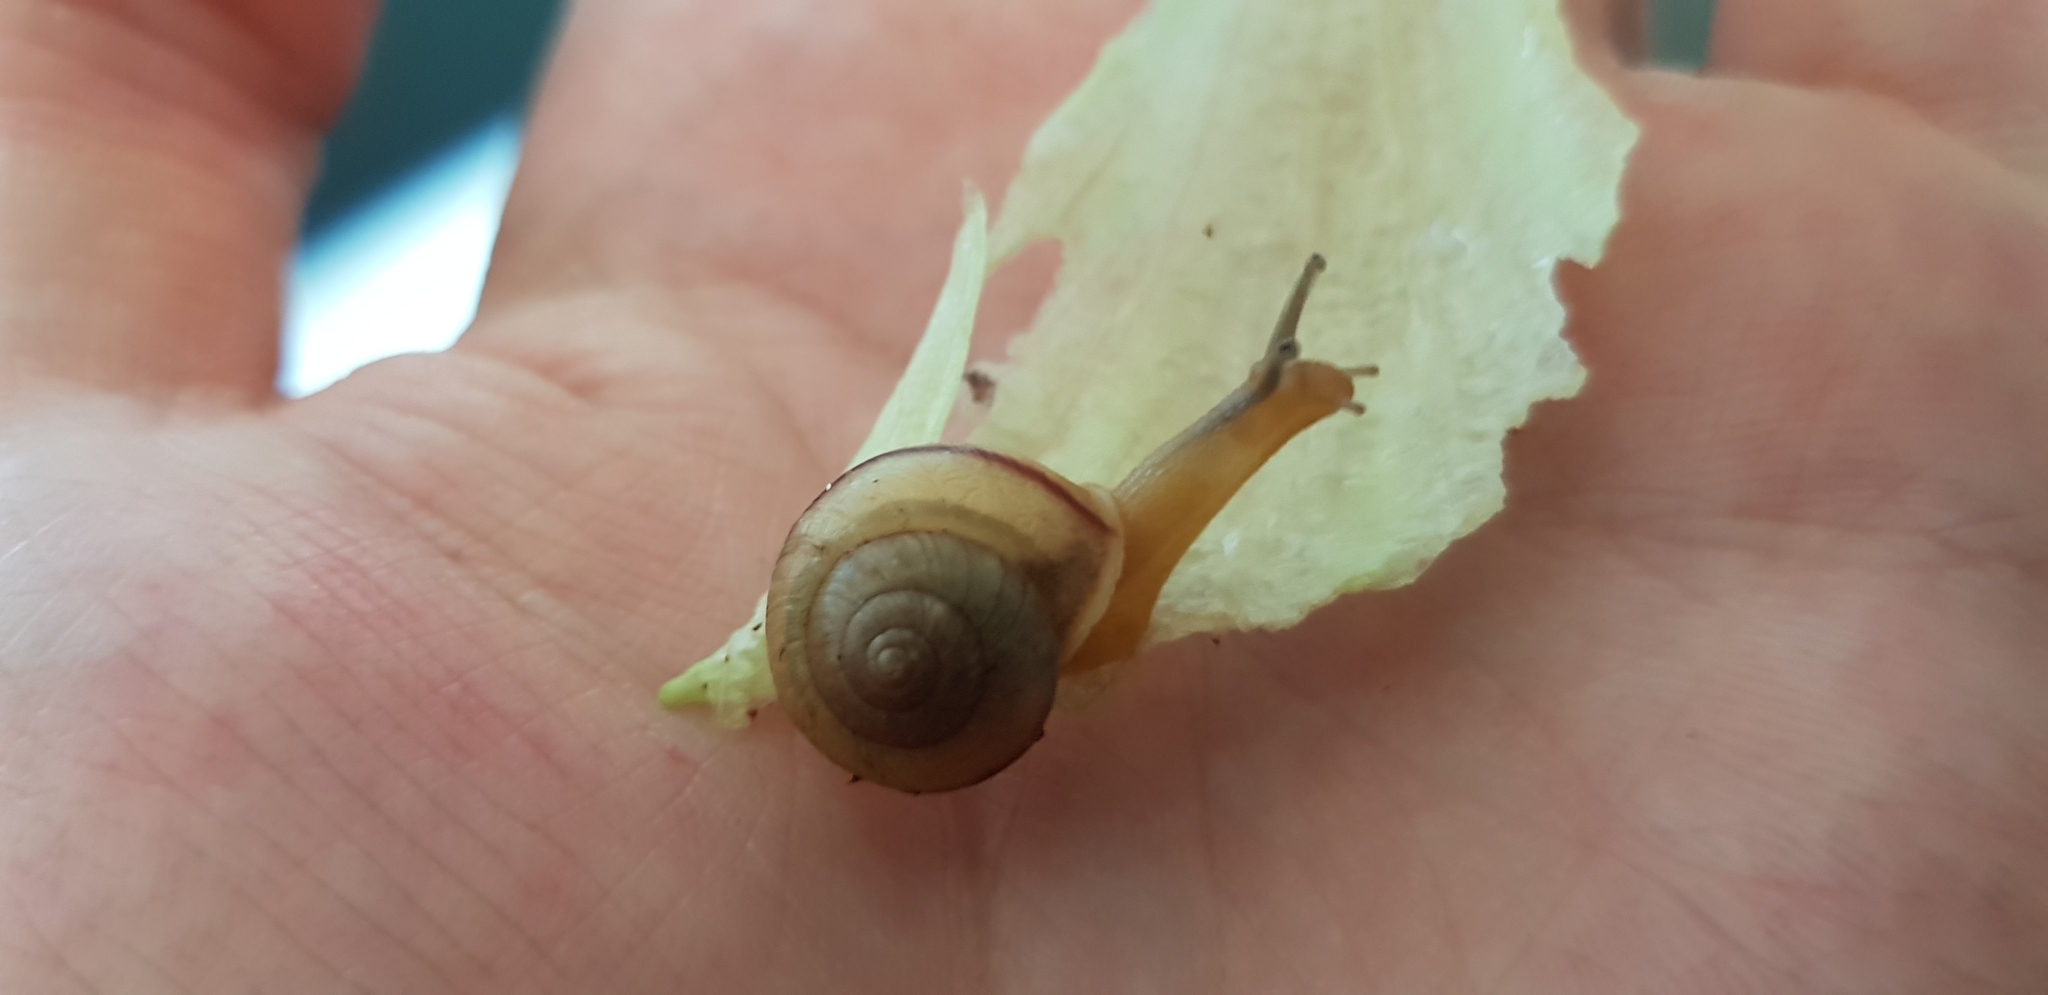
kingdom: Animalia
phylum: Mollusca
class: Gastropoda
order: Stylommatophora
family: Camaenidae
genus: Bradybaena
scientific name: Bradybaena similaris
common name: Asian trampsnail
